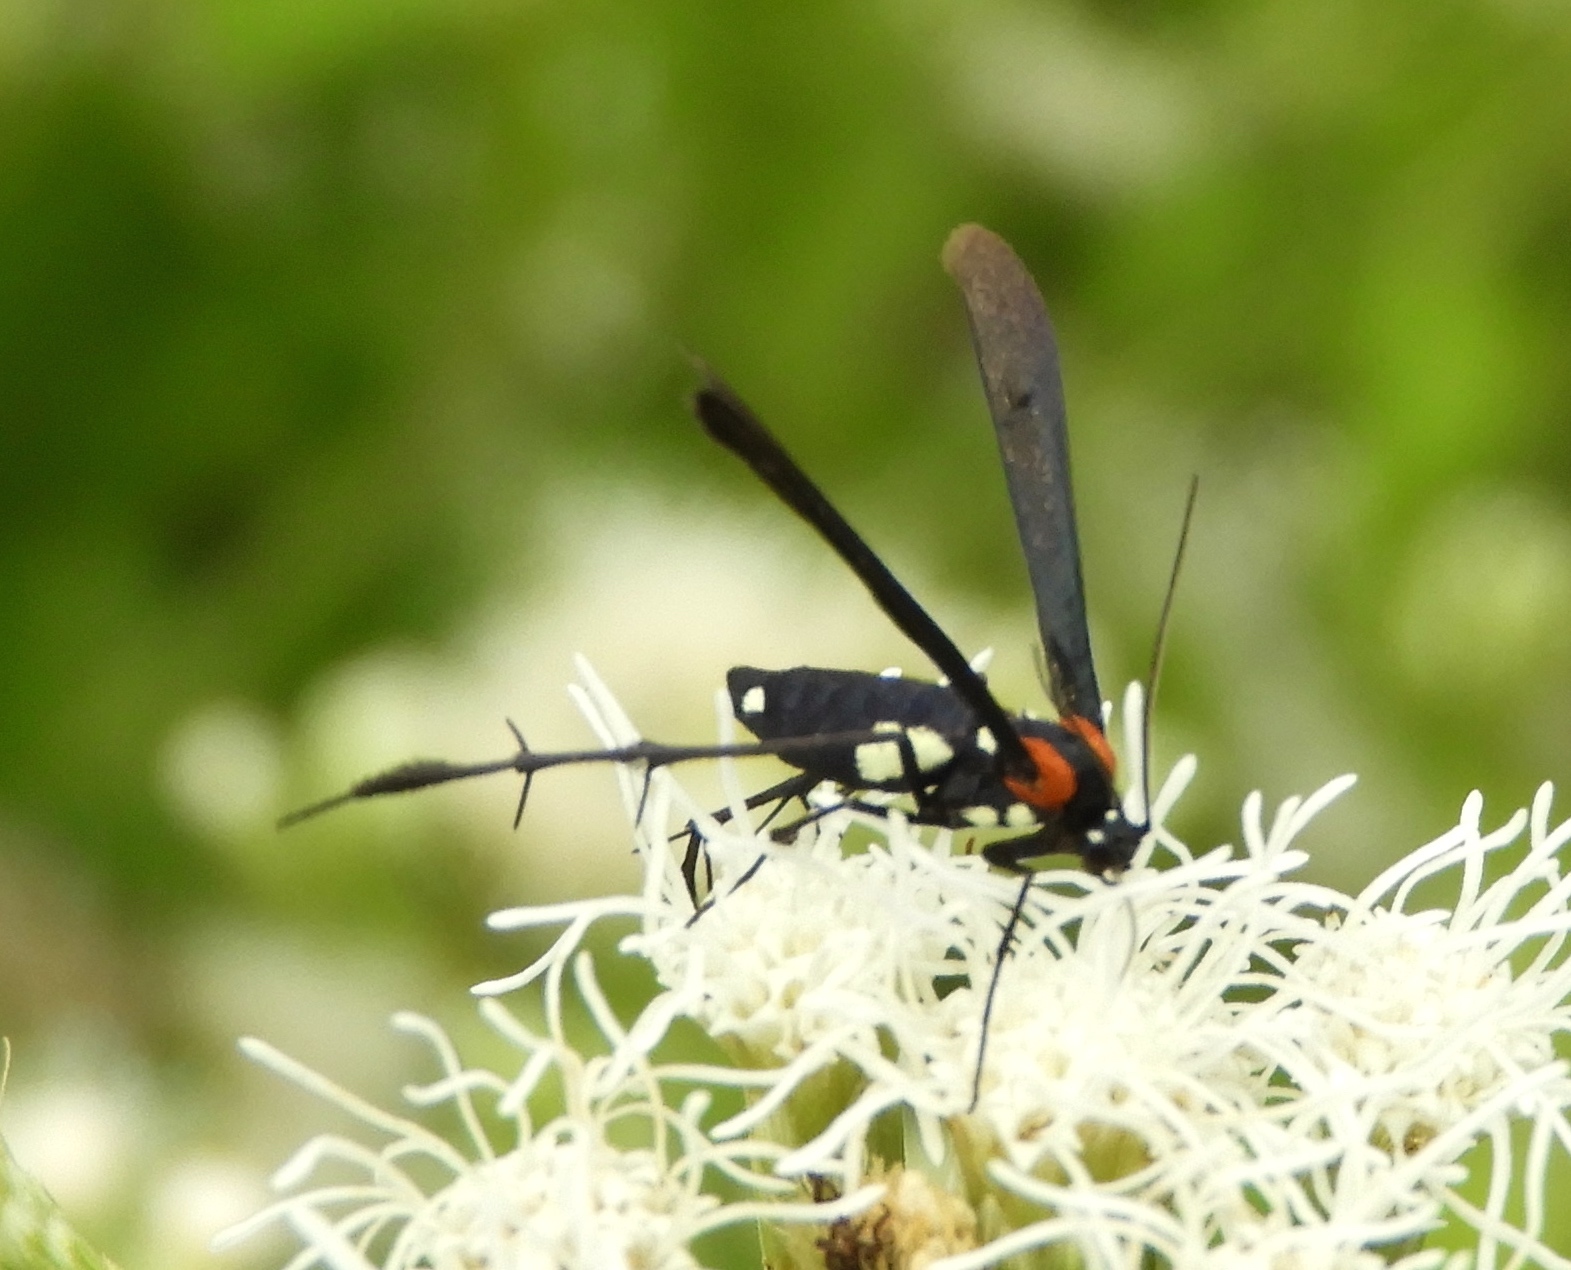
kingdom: Animalia
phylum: Arthropoda
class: Insecta
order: Lepidoptera
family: Pterophoridae
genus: Hellinsia
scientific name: Hellinsia chamelai
